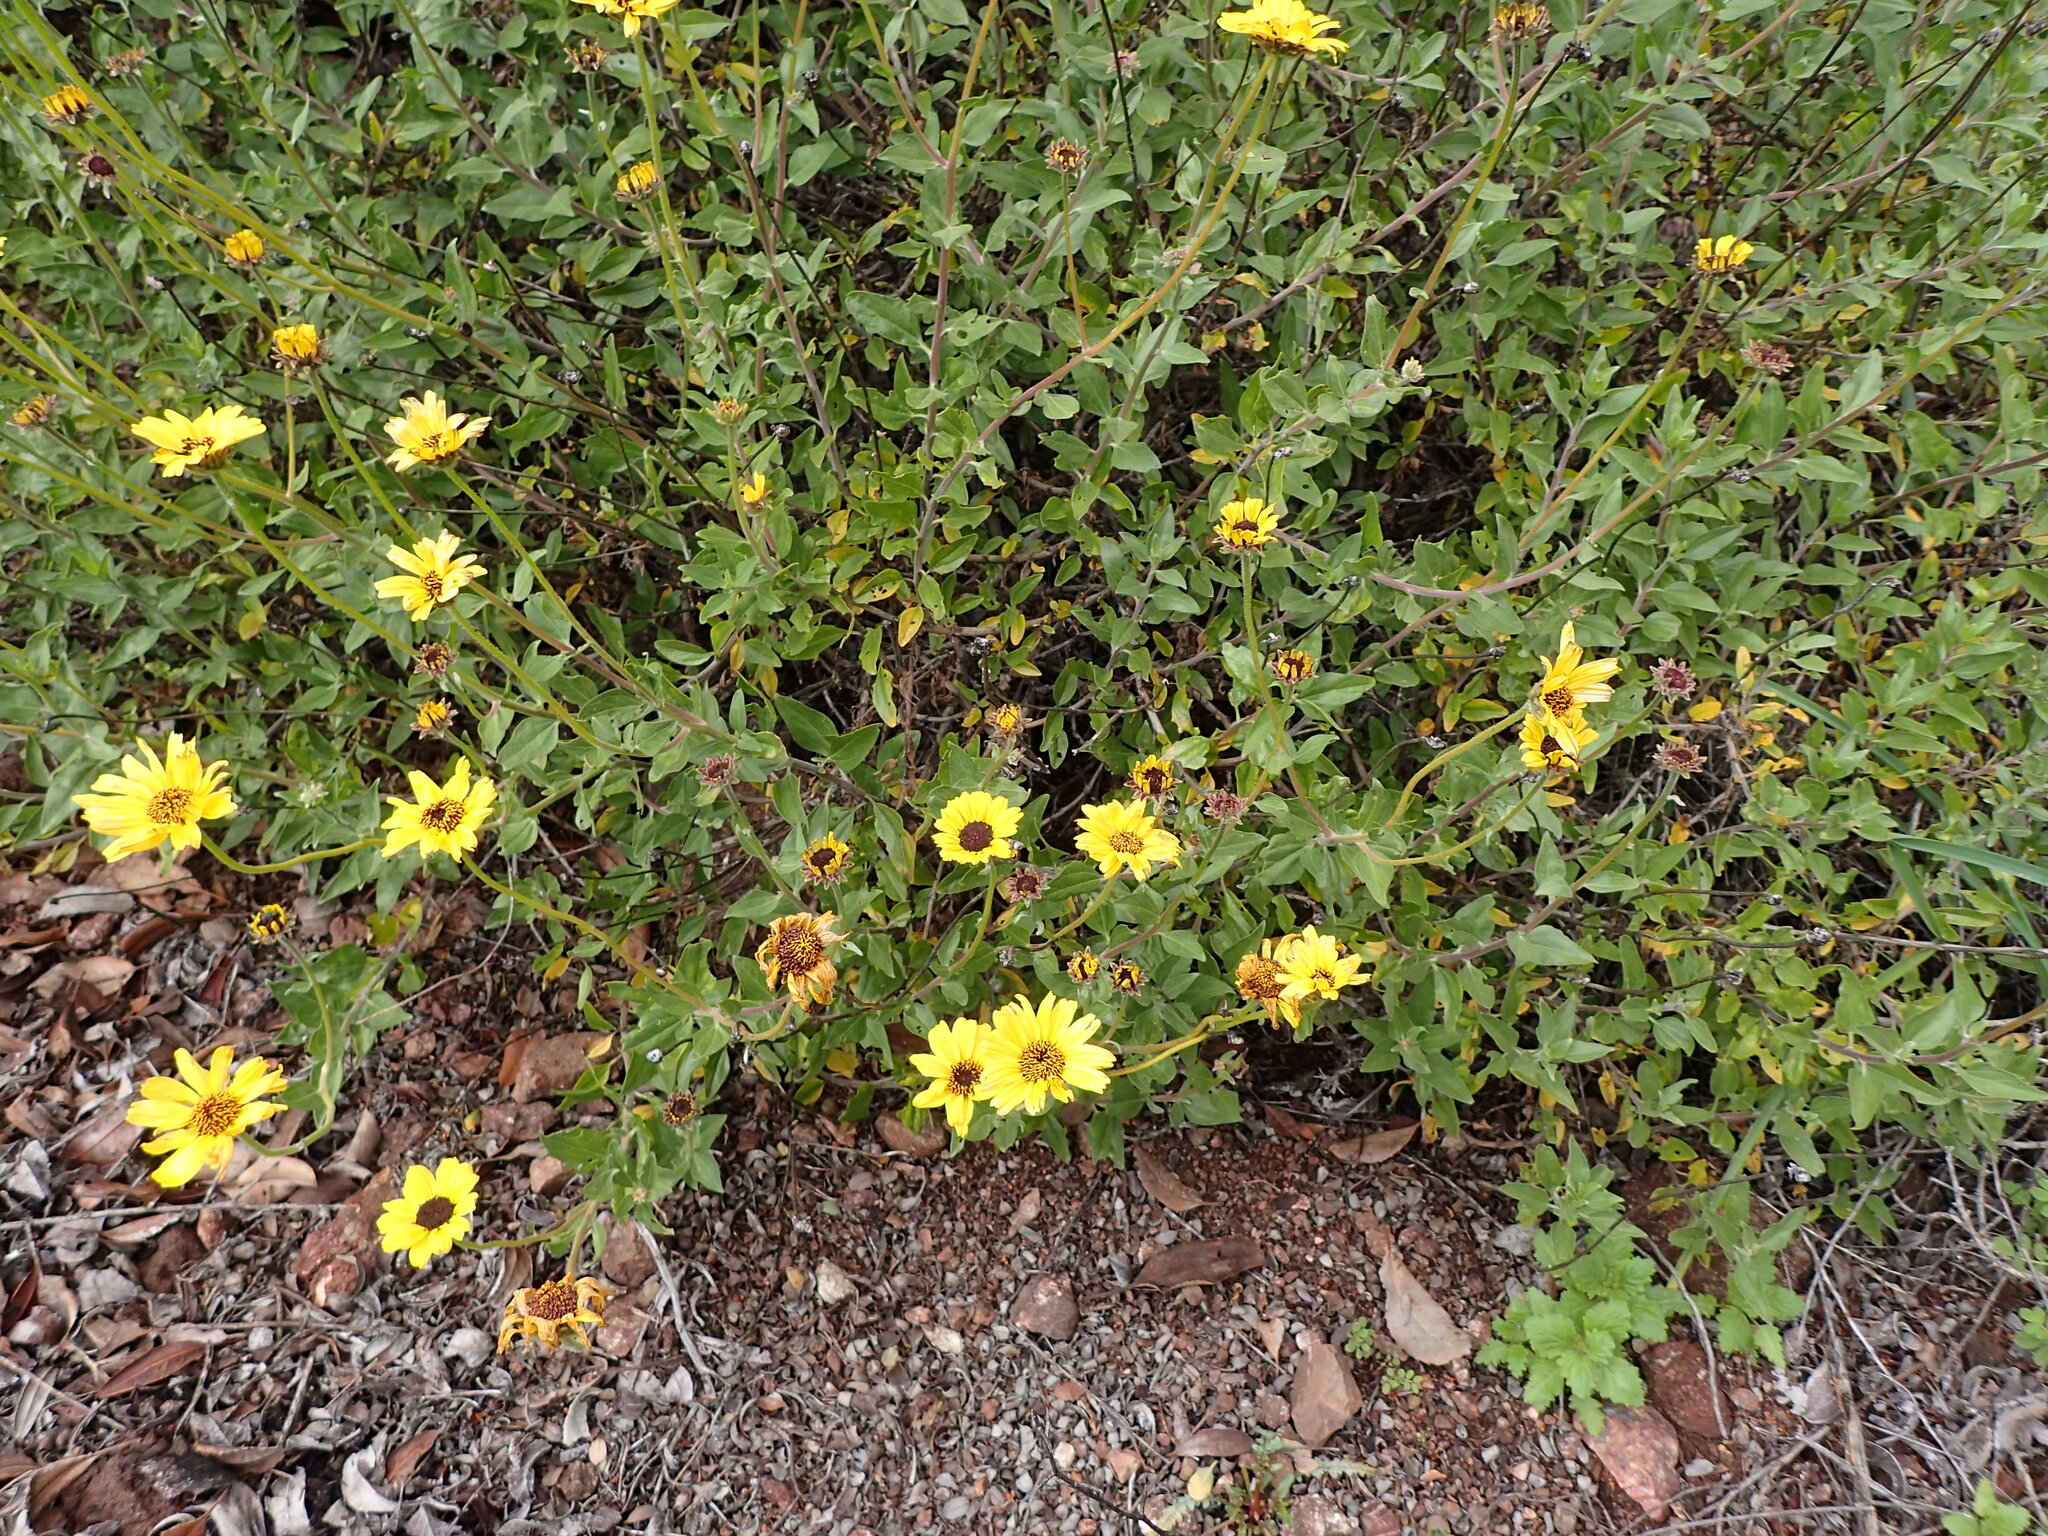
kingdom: Plantae
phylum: Tracheophyta
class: Magnoliopsida
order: Asterales
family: Asteraceae
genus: Encelia
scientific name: Encelia californica
